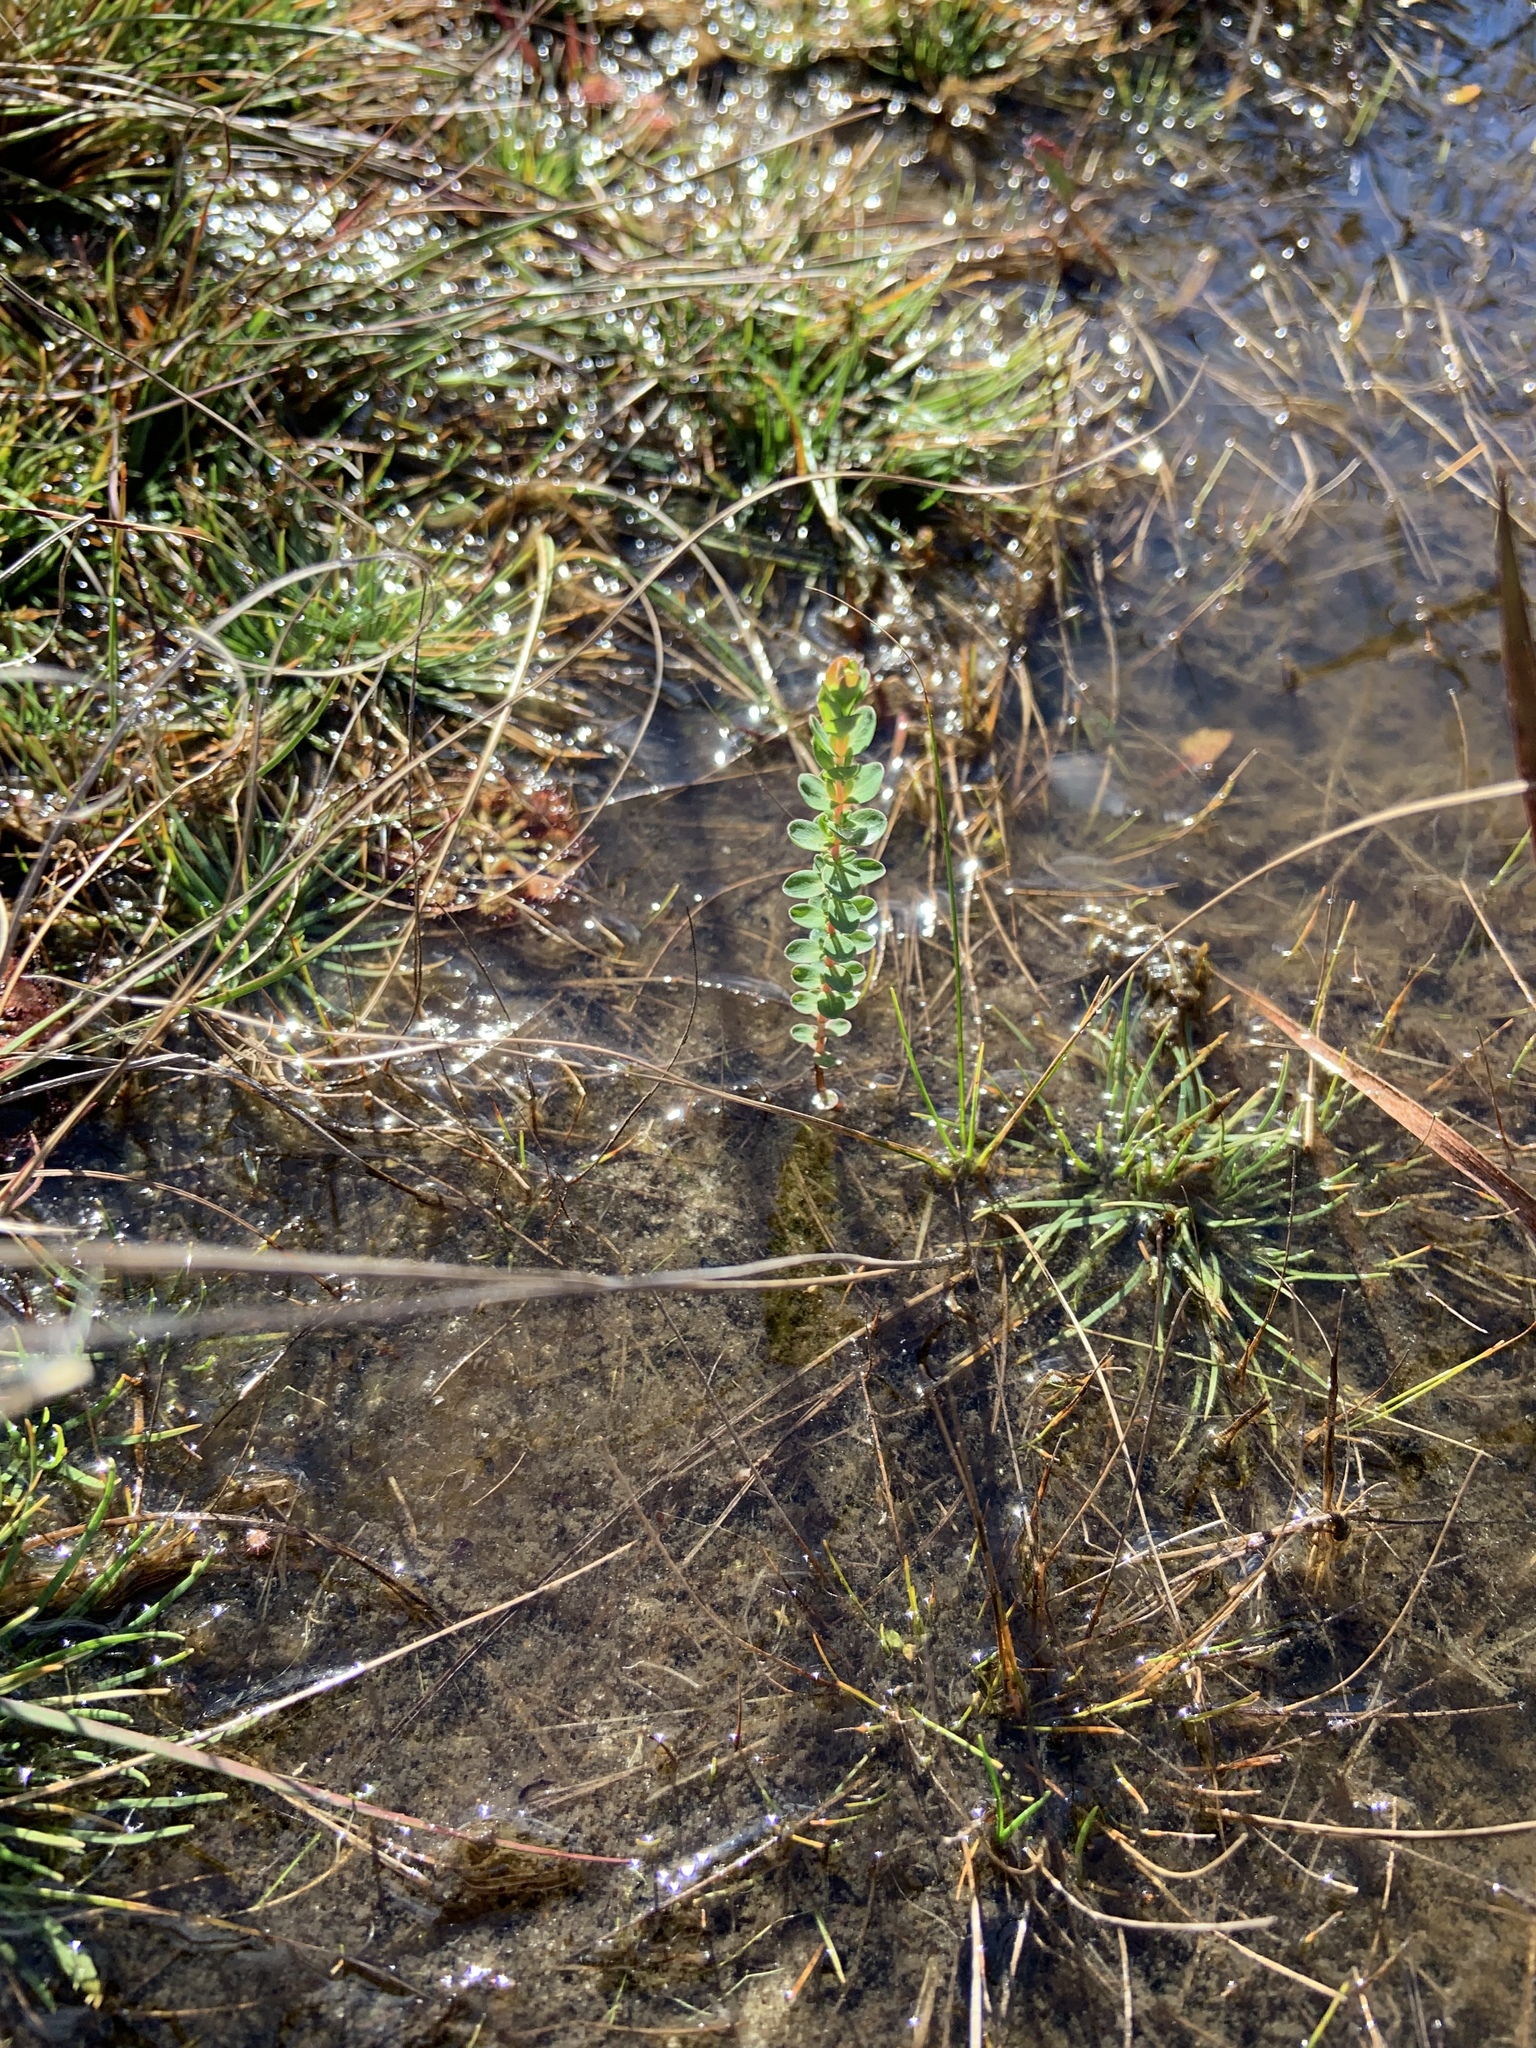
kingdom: Plantae
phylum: Tracheophyta
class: Magnoliopsida
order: Myrtales
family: Lythraceae
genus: Rotala
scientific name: Rotala rotundifolia
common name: Roundleaf toothcup
